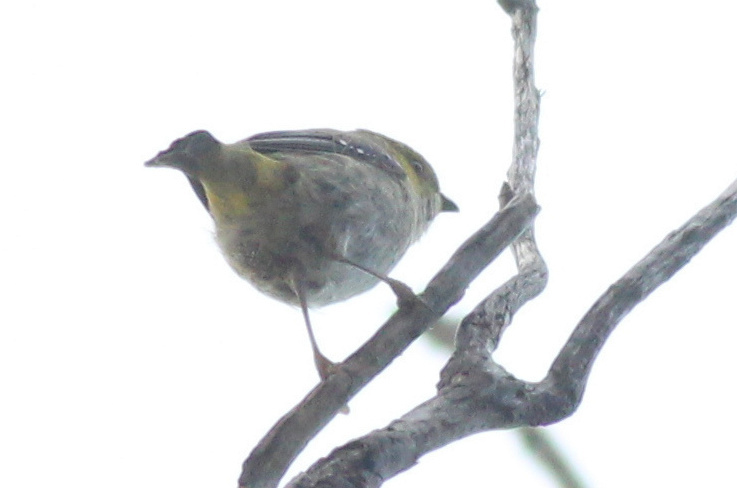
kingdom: Animalia
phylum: Chordata
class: Aves
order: Passeriformes
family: Pardalotidae
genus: Pardalotus
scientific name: Pardalotus quadragintus
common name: Forty-spotted pardalote
